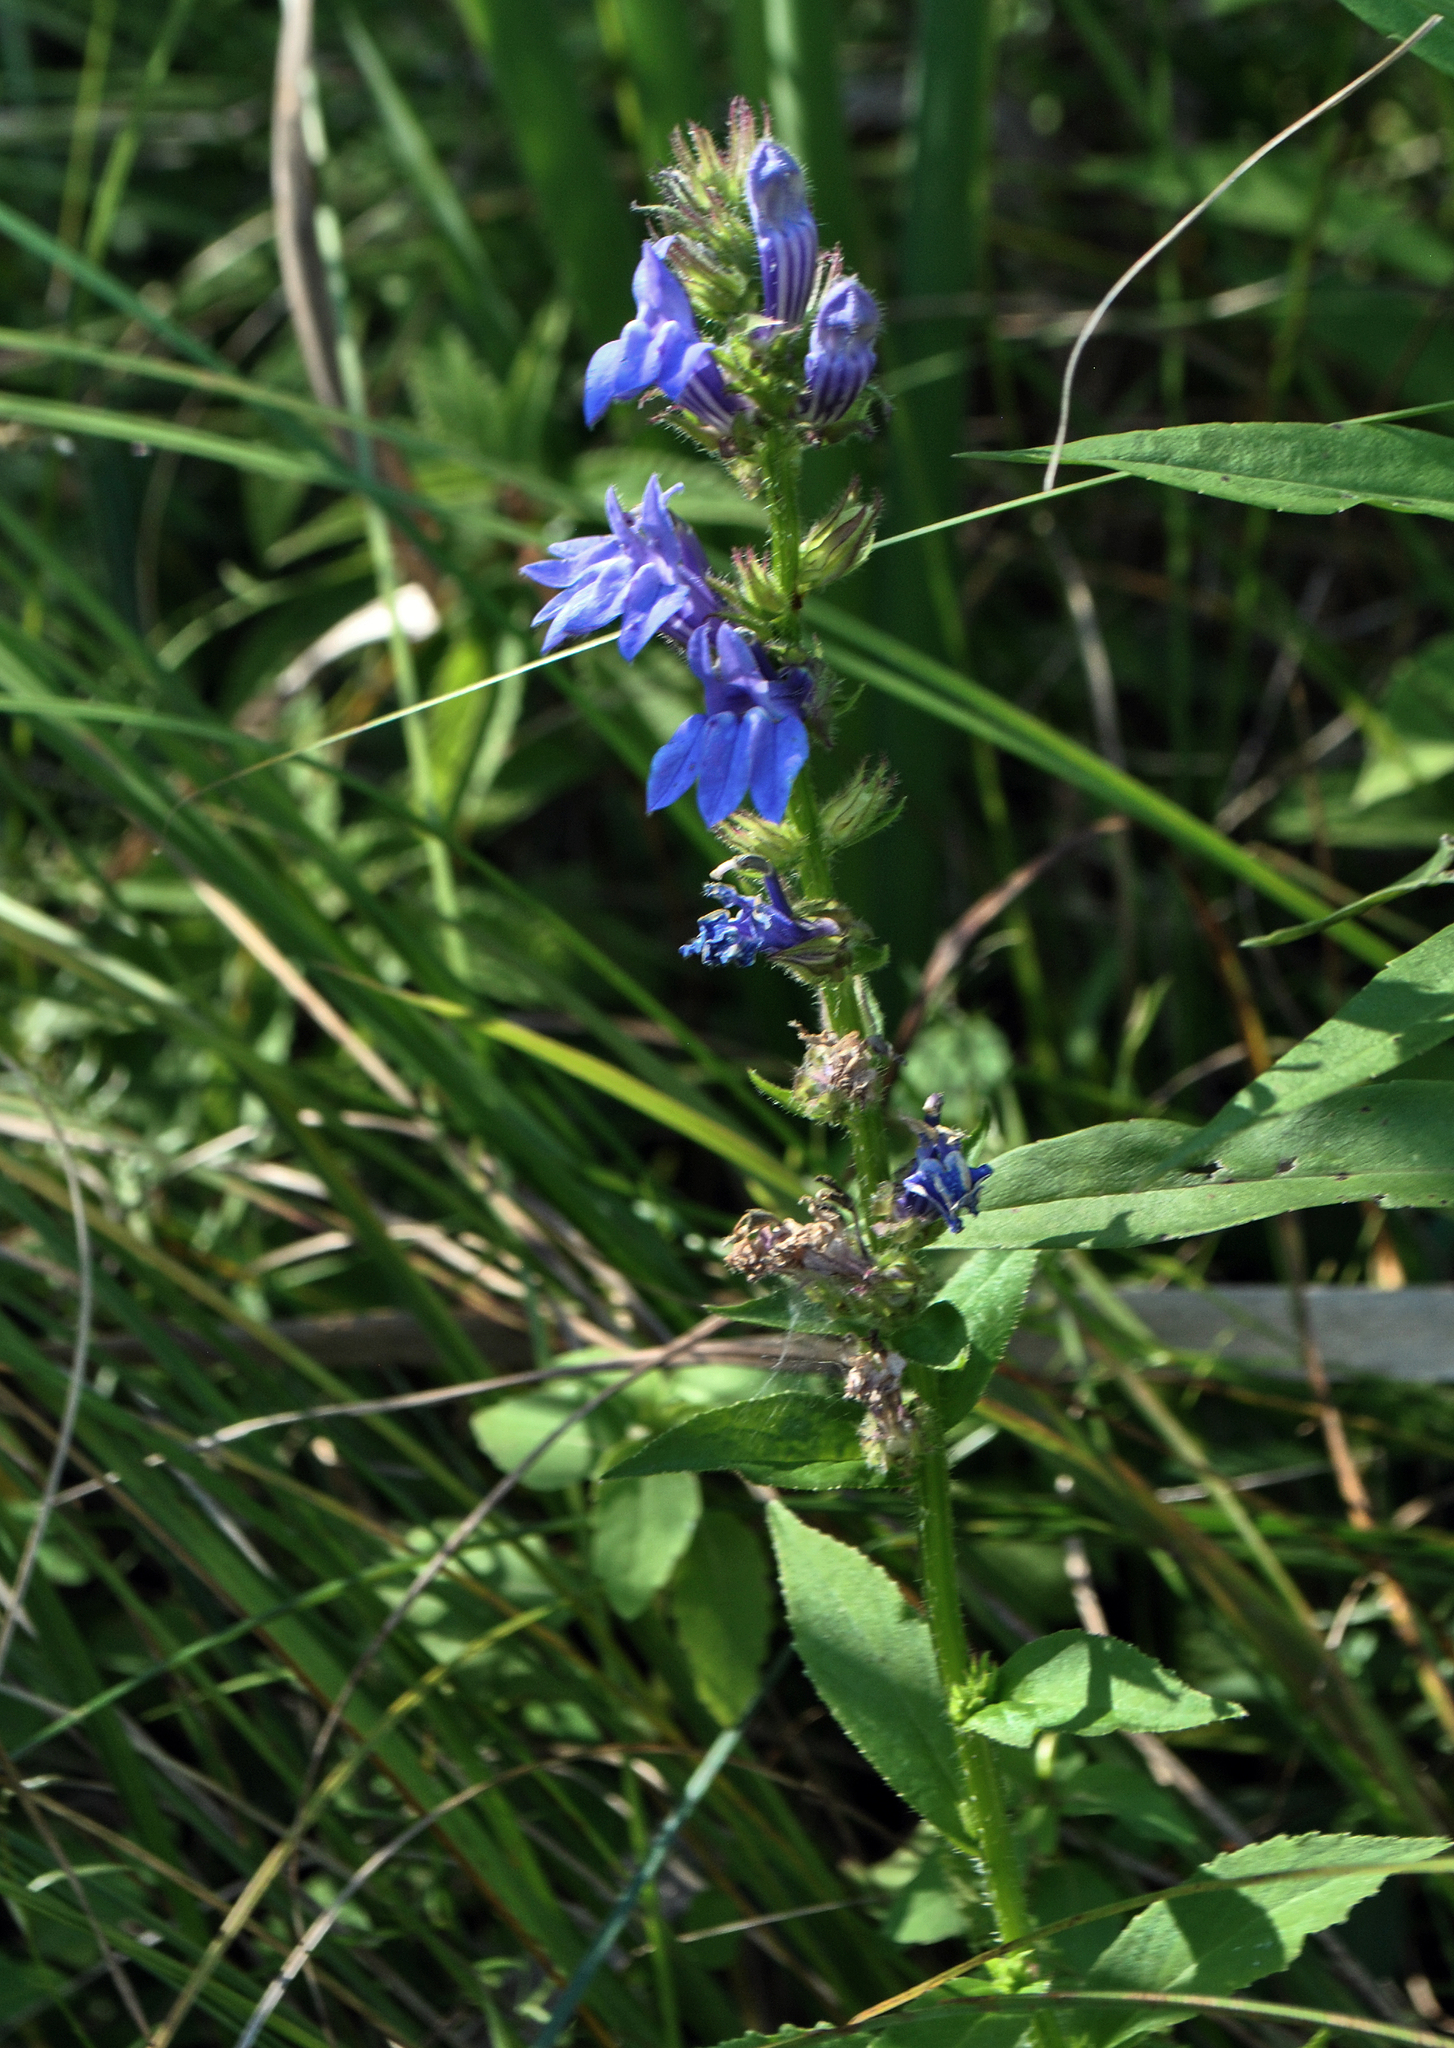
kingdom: Plantae
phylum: Tracheophyta
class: Magnoliopsida
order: Asterales
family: Campanulaceae
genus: Lobelia
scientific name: Lobelia siphilitica
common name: Great lobelia
